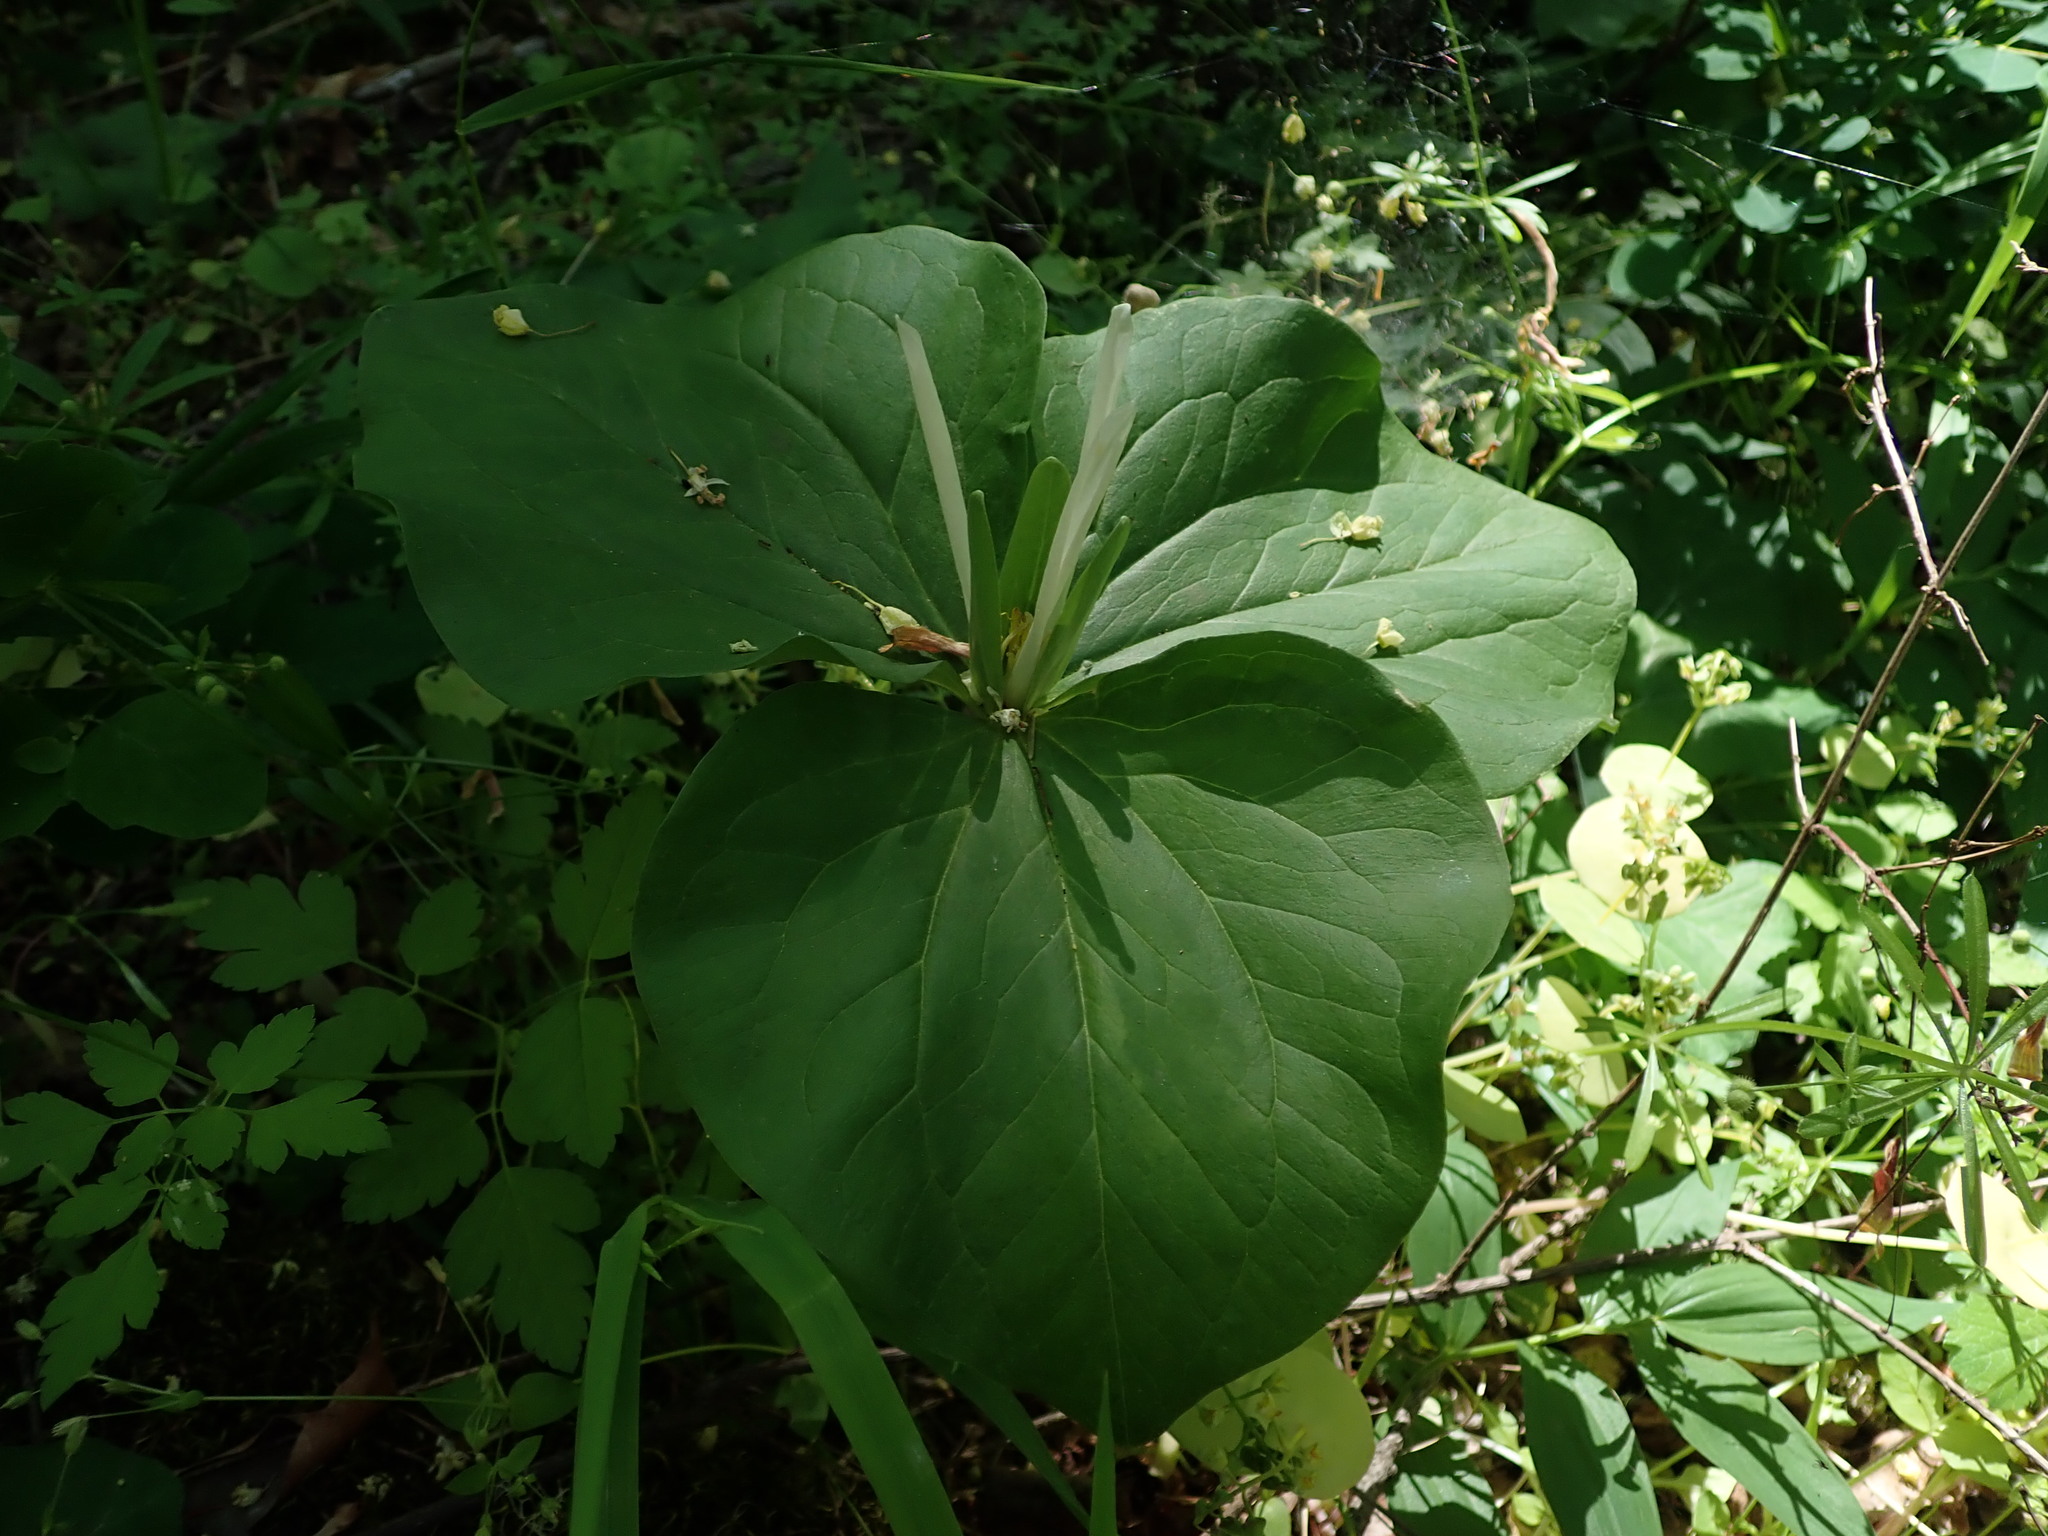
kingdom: Plantae
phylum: Tracheophyta
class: Liliopsida
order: Liliales
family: Melanthiaceae
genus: Trillium
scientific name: Trillium albidum
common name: Freeman's trillium
